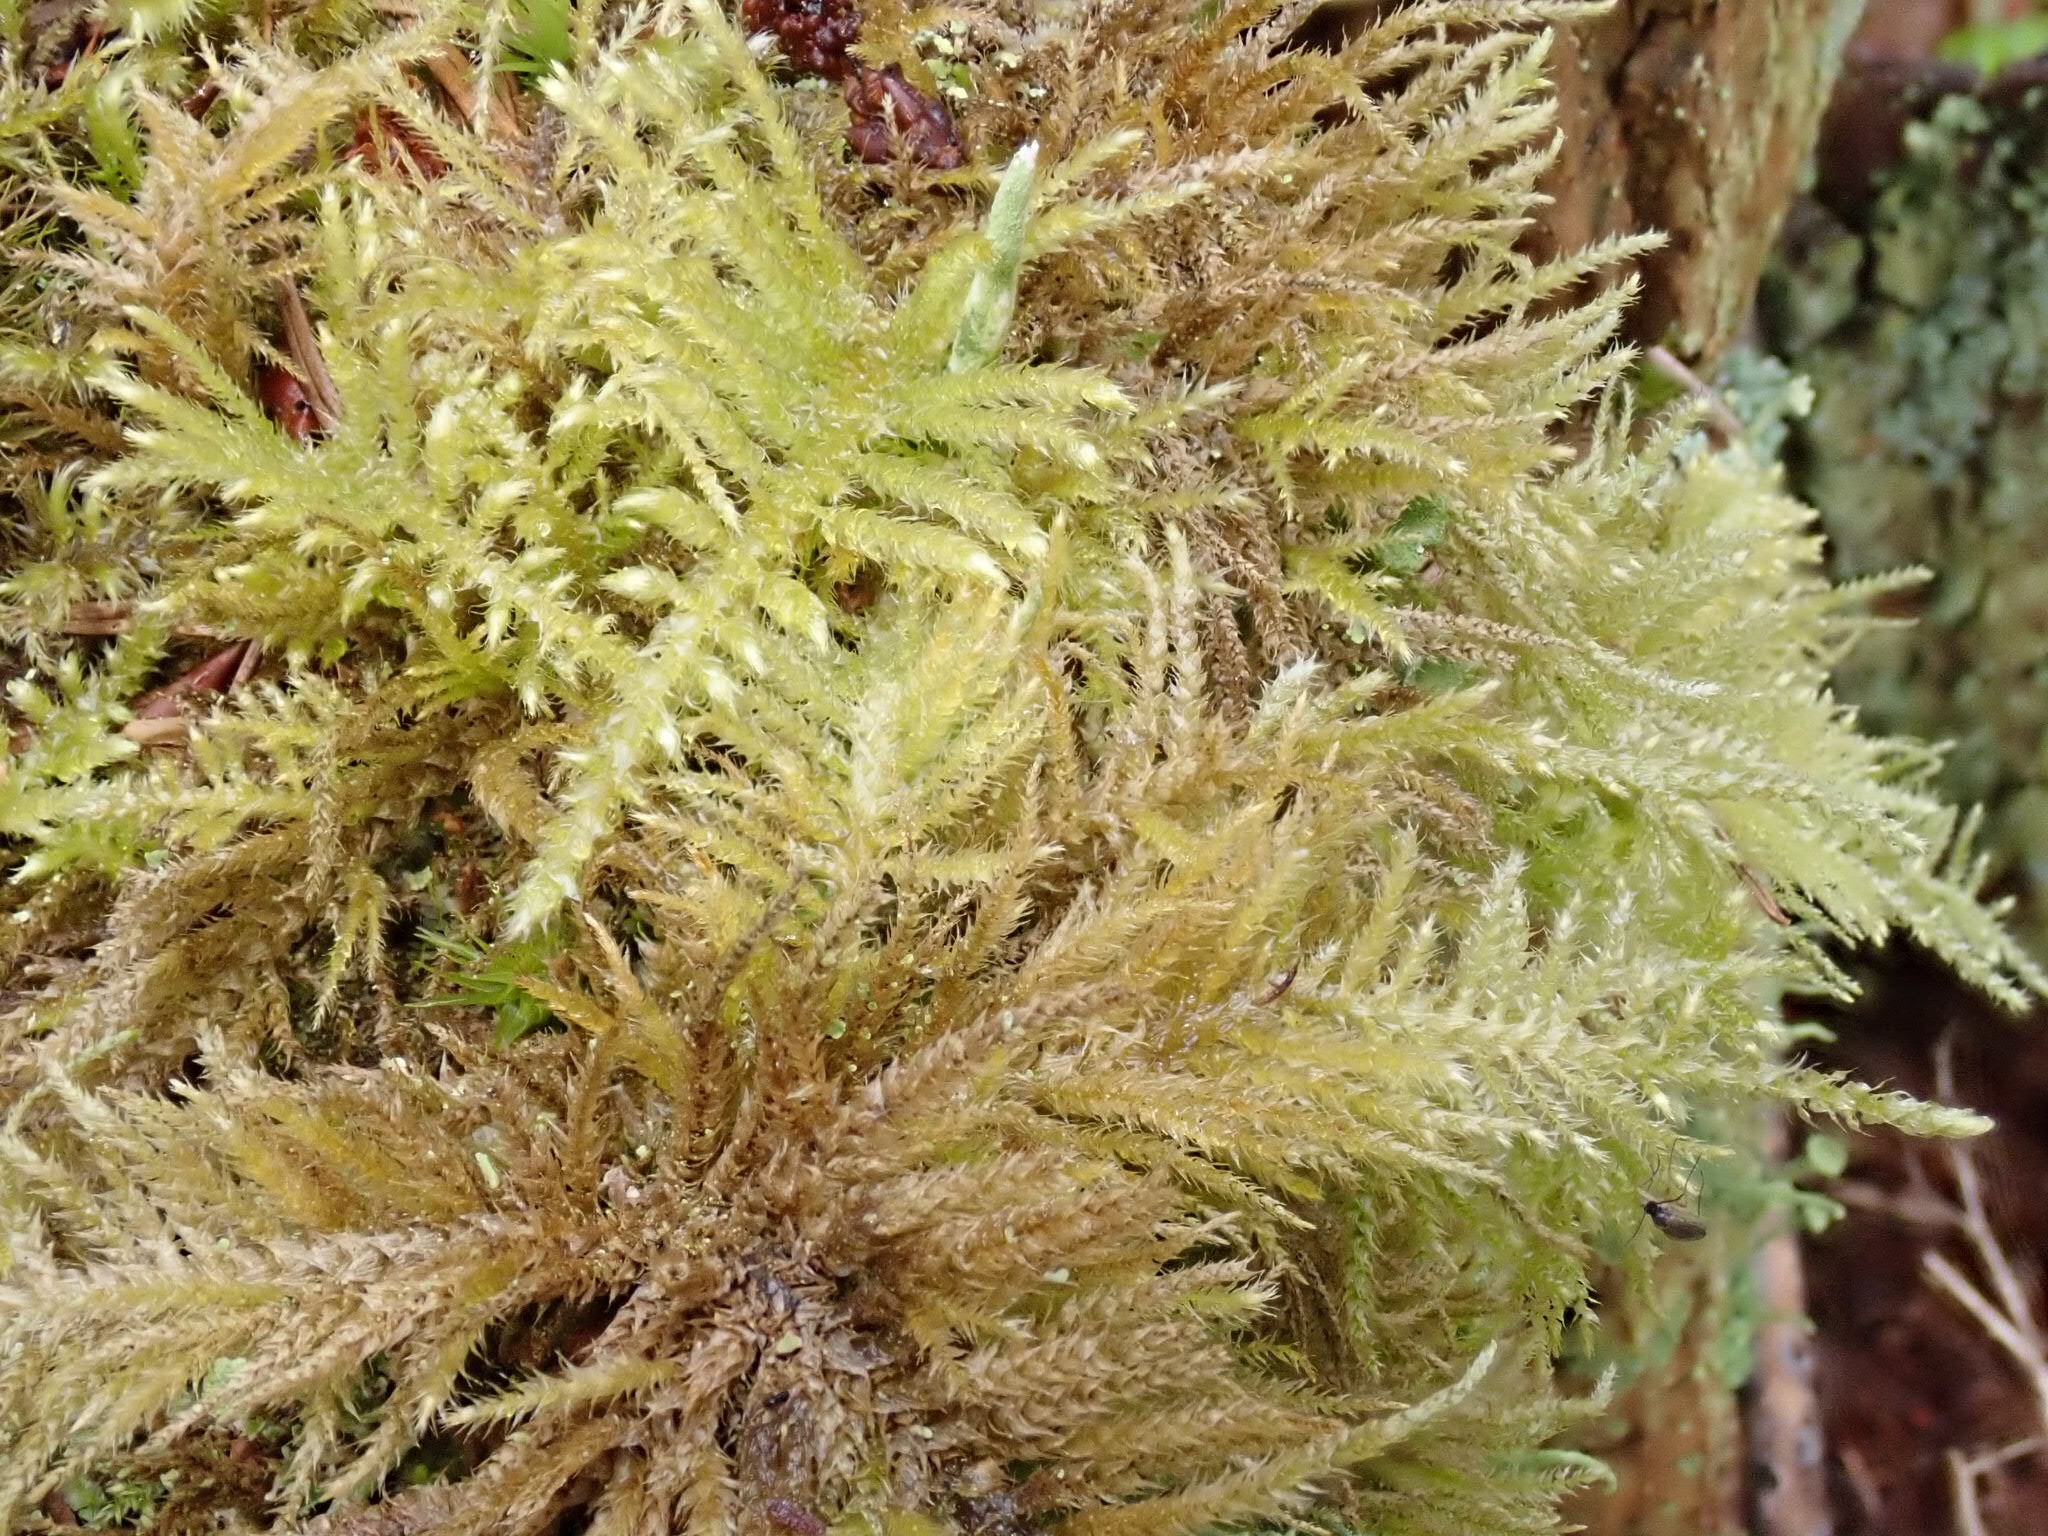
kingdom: Plantae
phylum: Bryophyta
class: Bryopsida
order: Hypnales
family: Brachytheciaceae
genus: Kindbergia
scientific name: Kindbergia oregana
